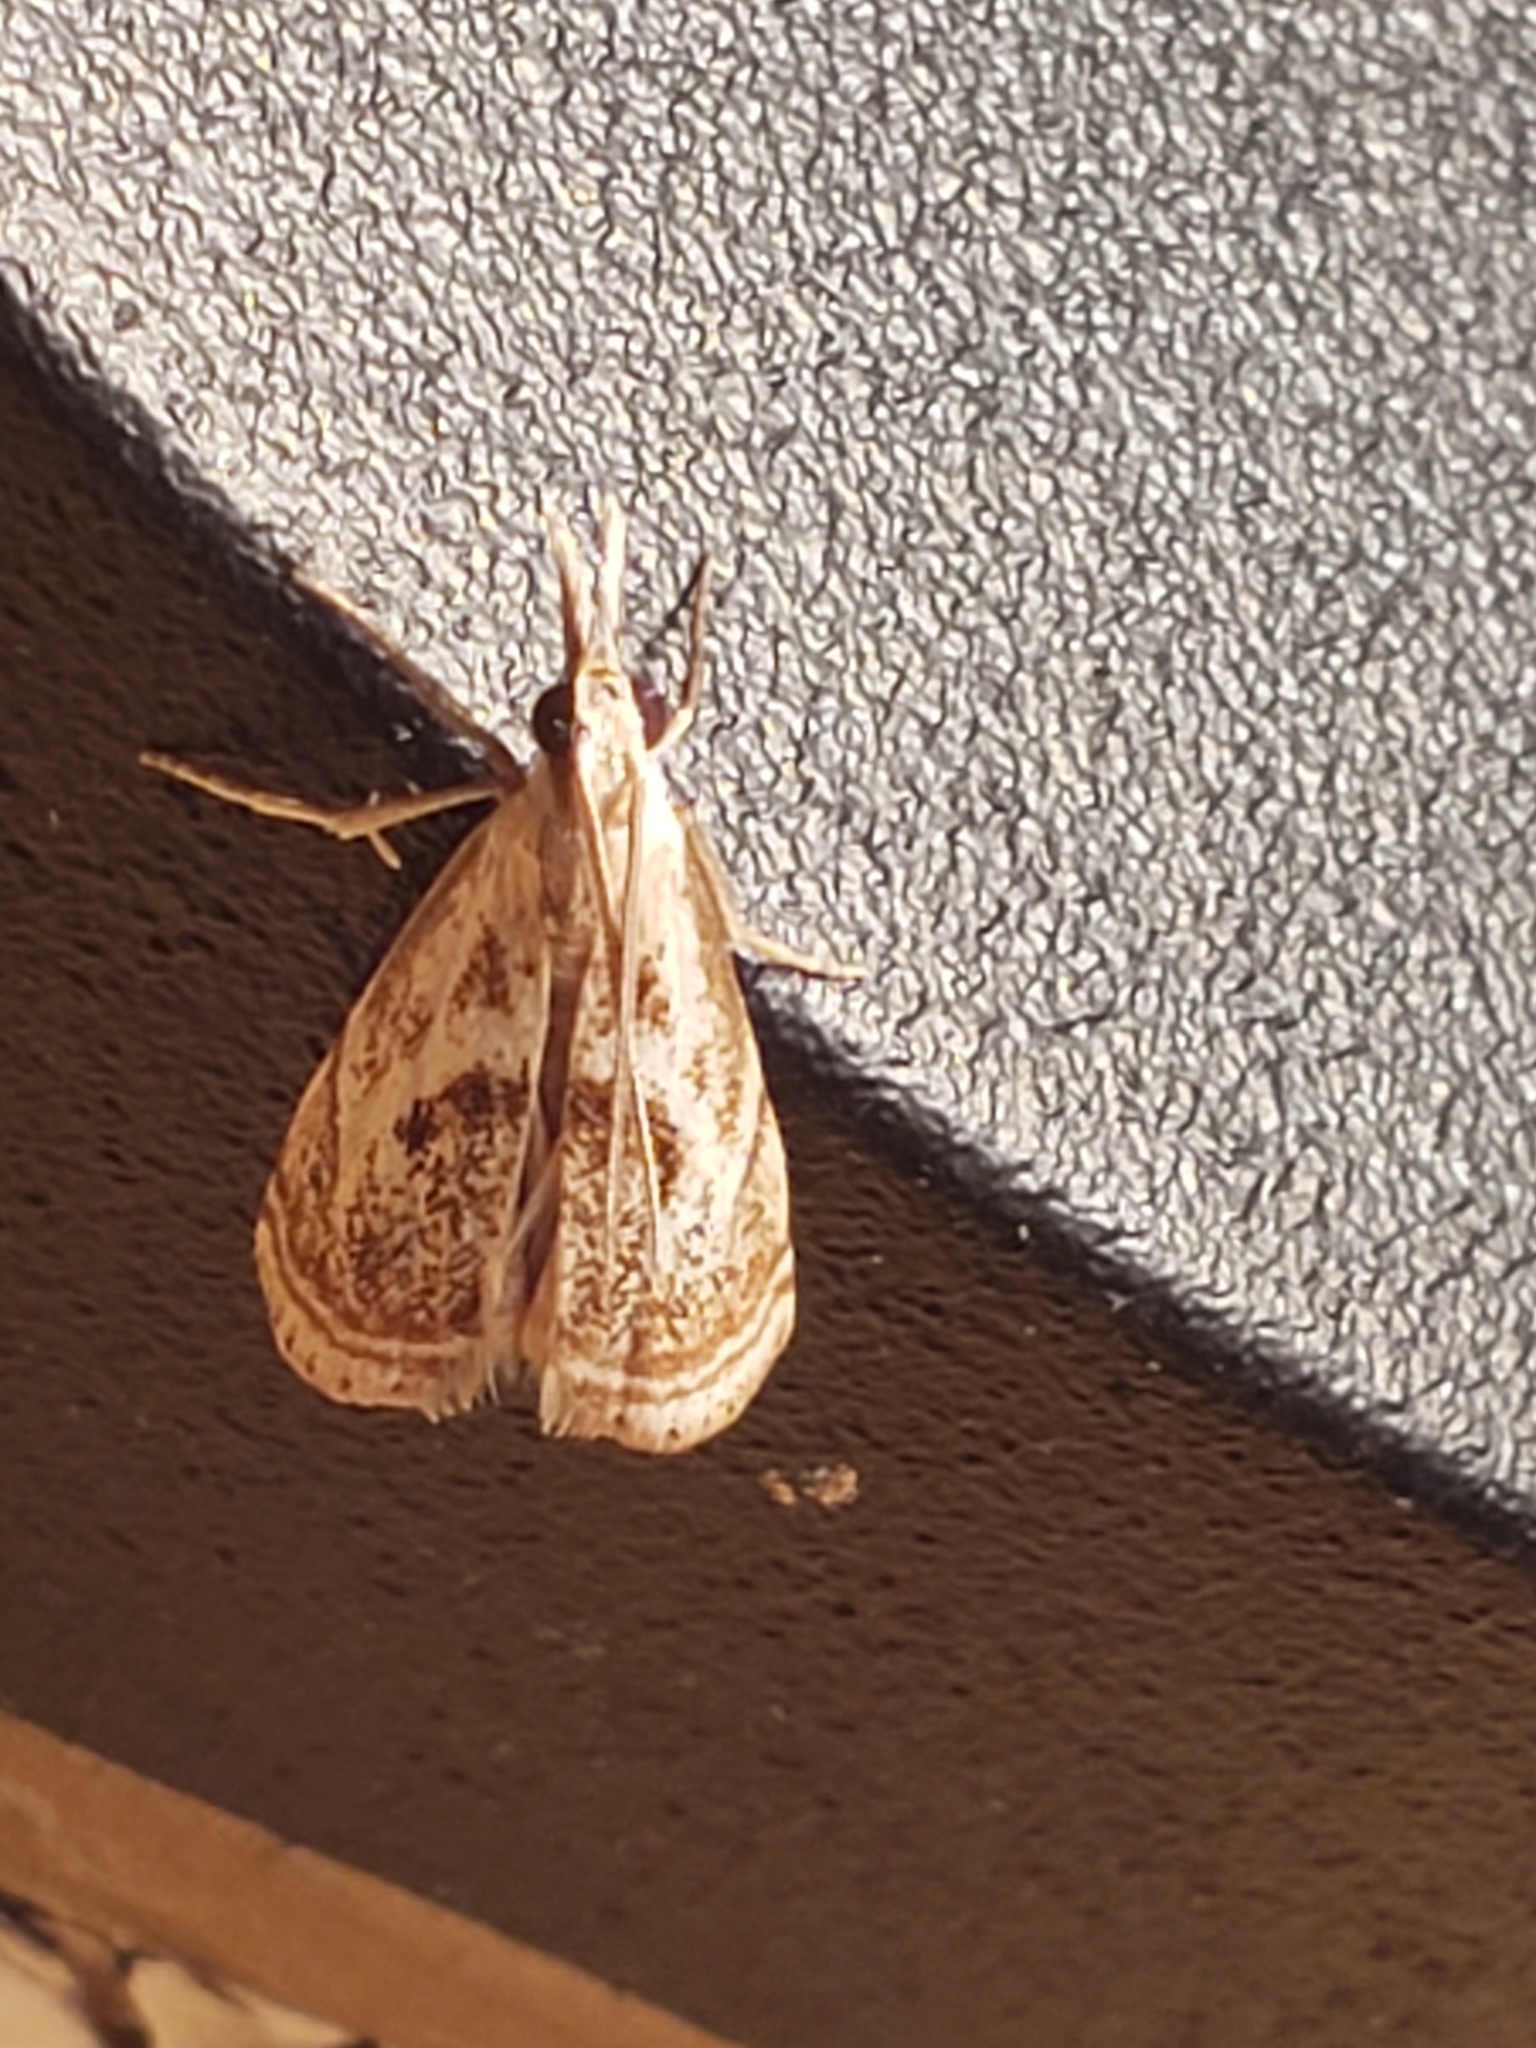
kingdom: Animalia
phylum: Arthropoda
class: Insecta
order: Lepidoptera
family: Crambidae
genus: Microcrambus
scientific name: Microcrambus elegans
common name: Elegant grass-veneer
